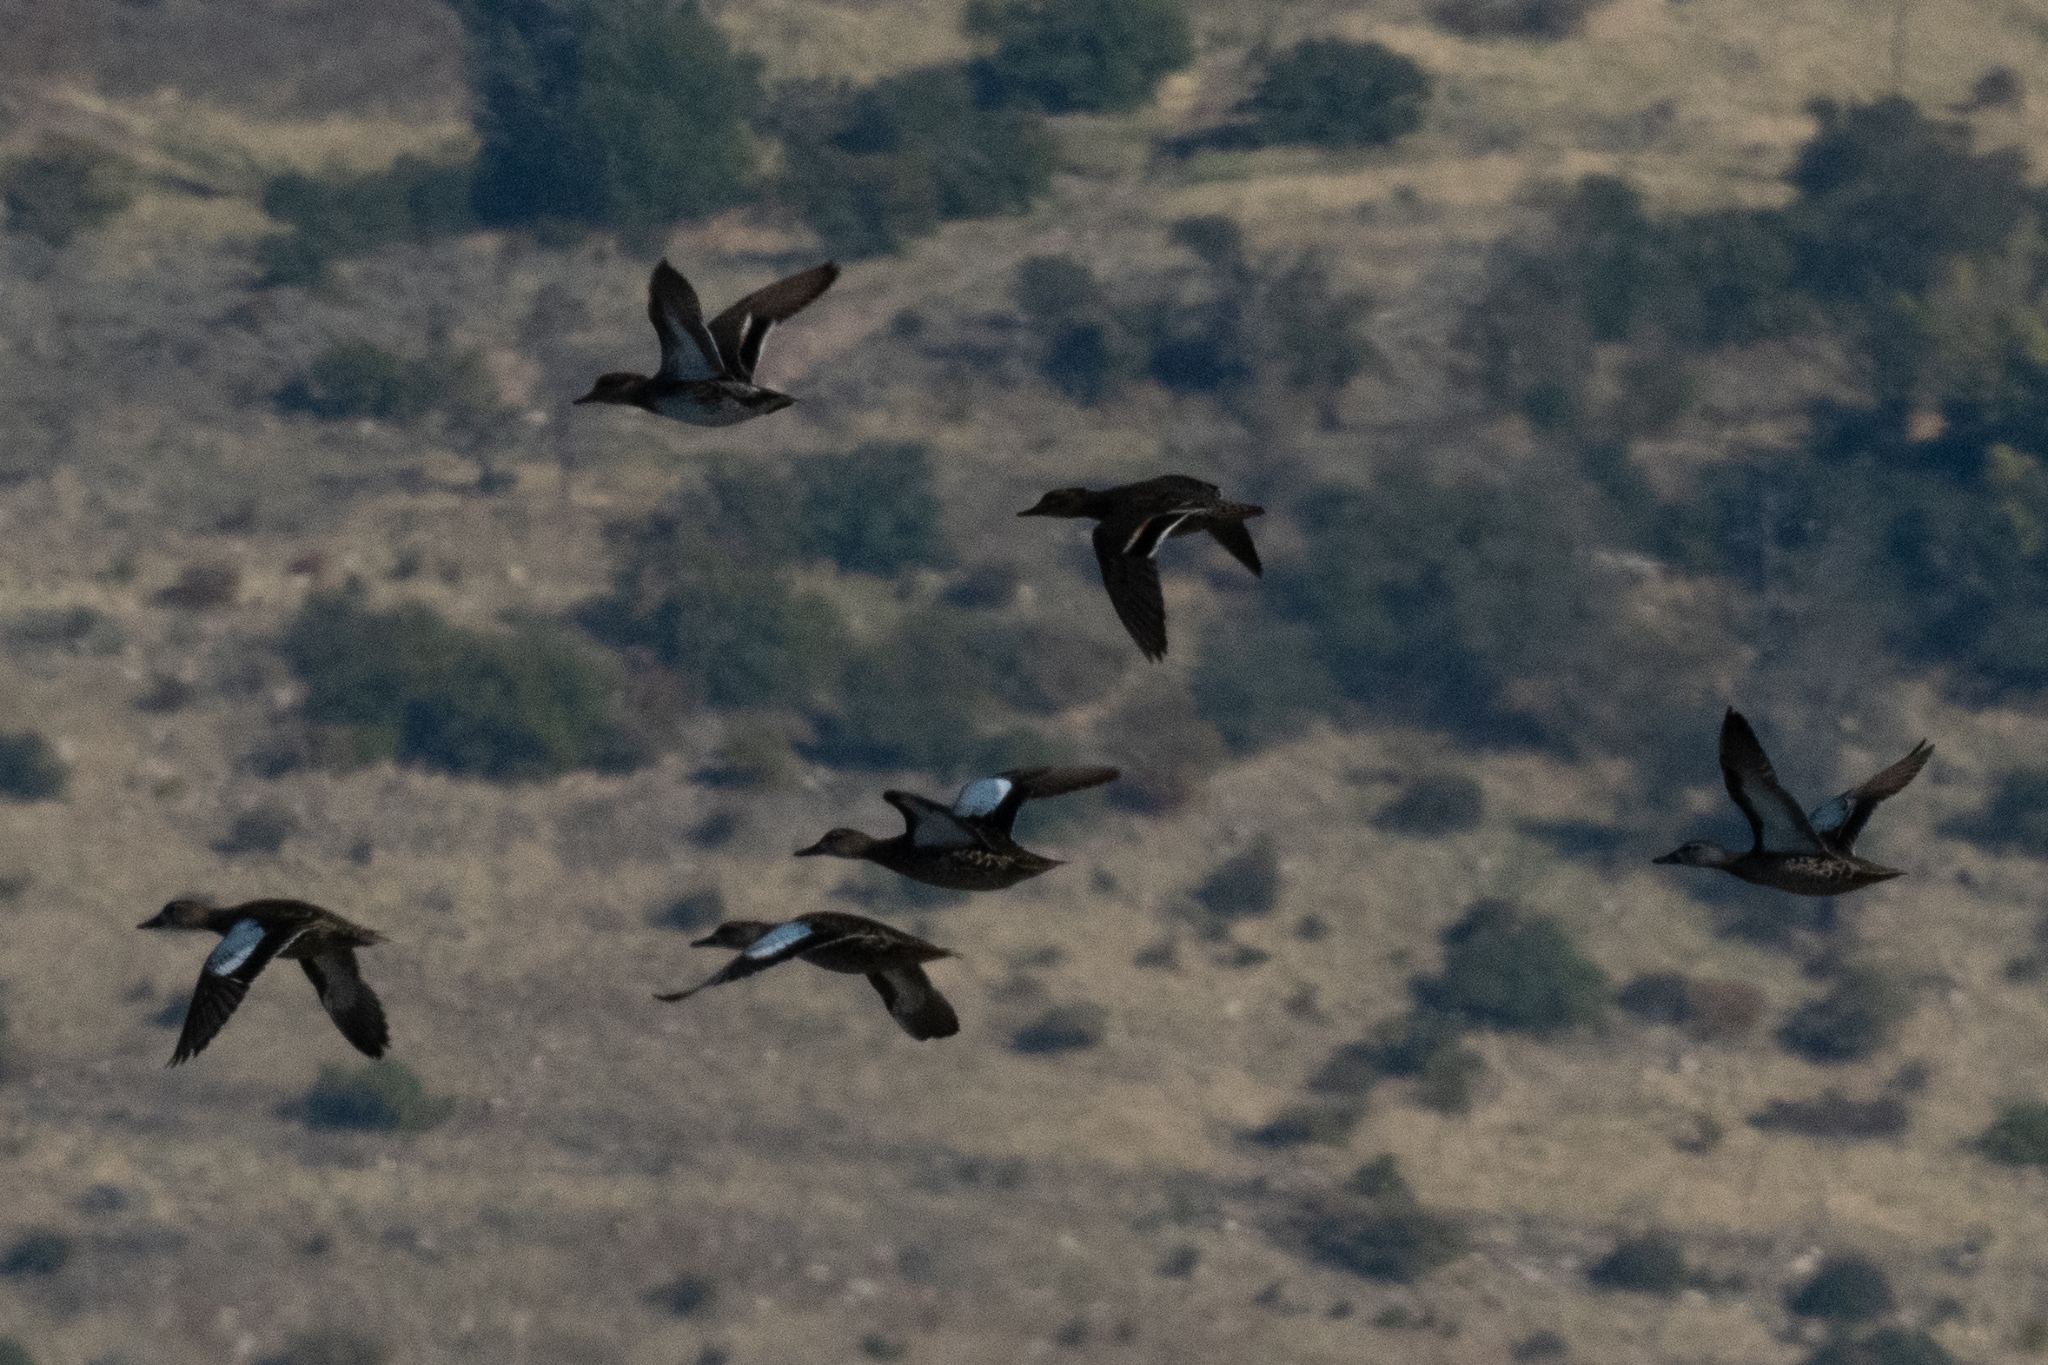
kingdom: Animalia
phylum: Chordata
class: Aves
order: Anseriformes
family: Anatidae
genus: Spatula
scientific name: Spatula cyanoptera
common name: Cinnamon teal
